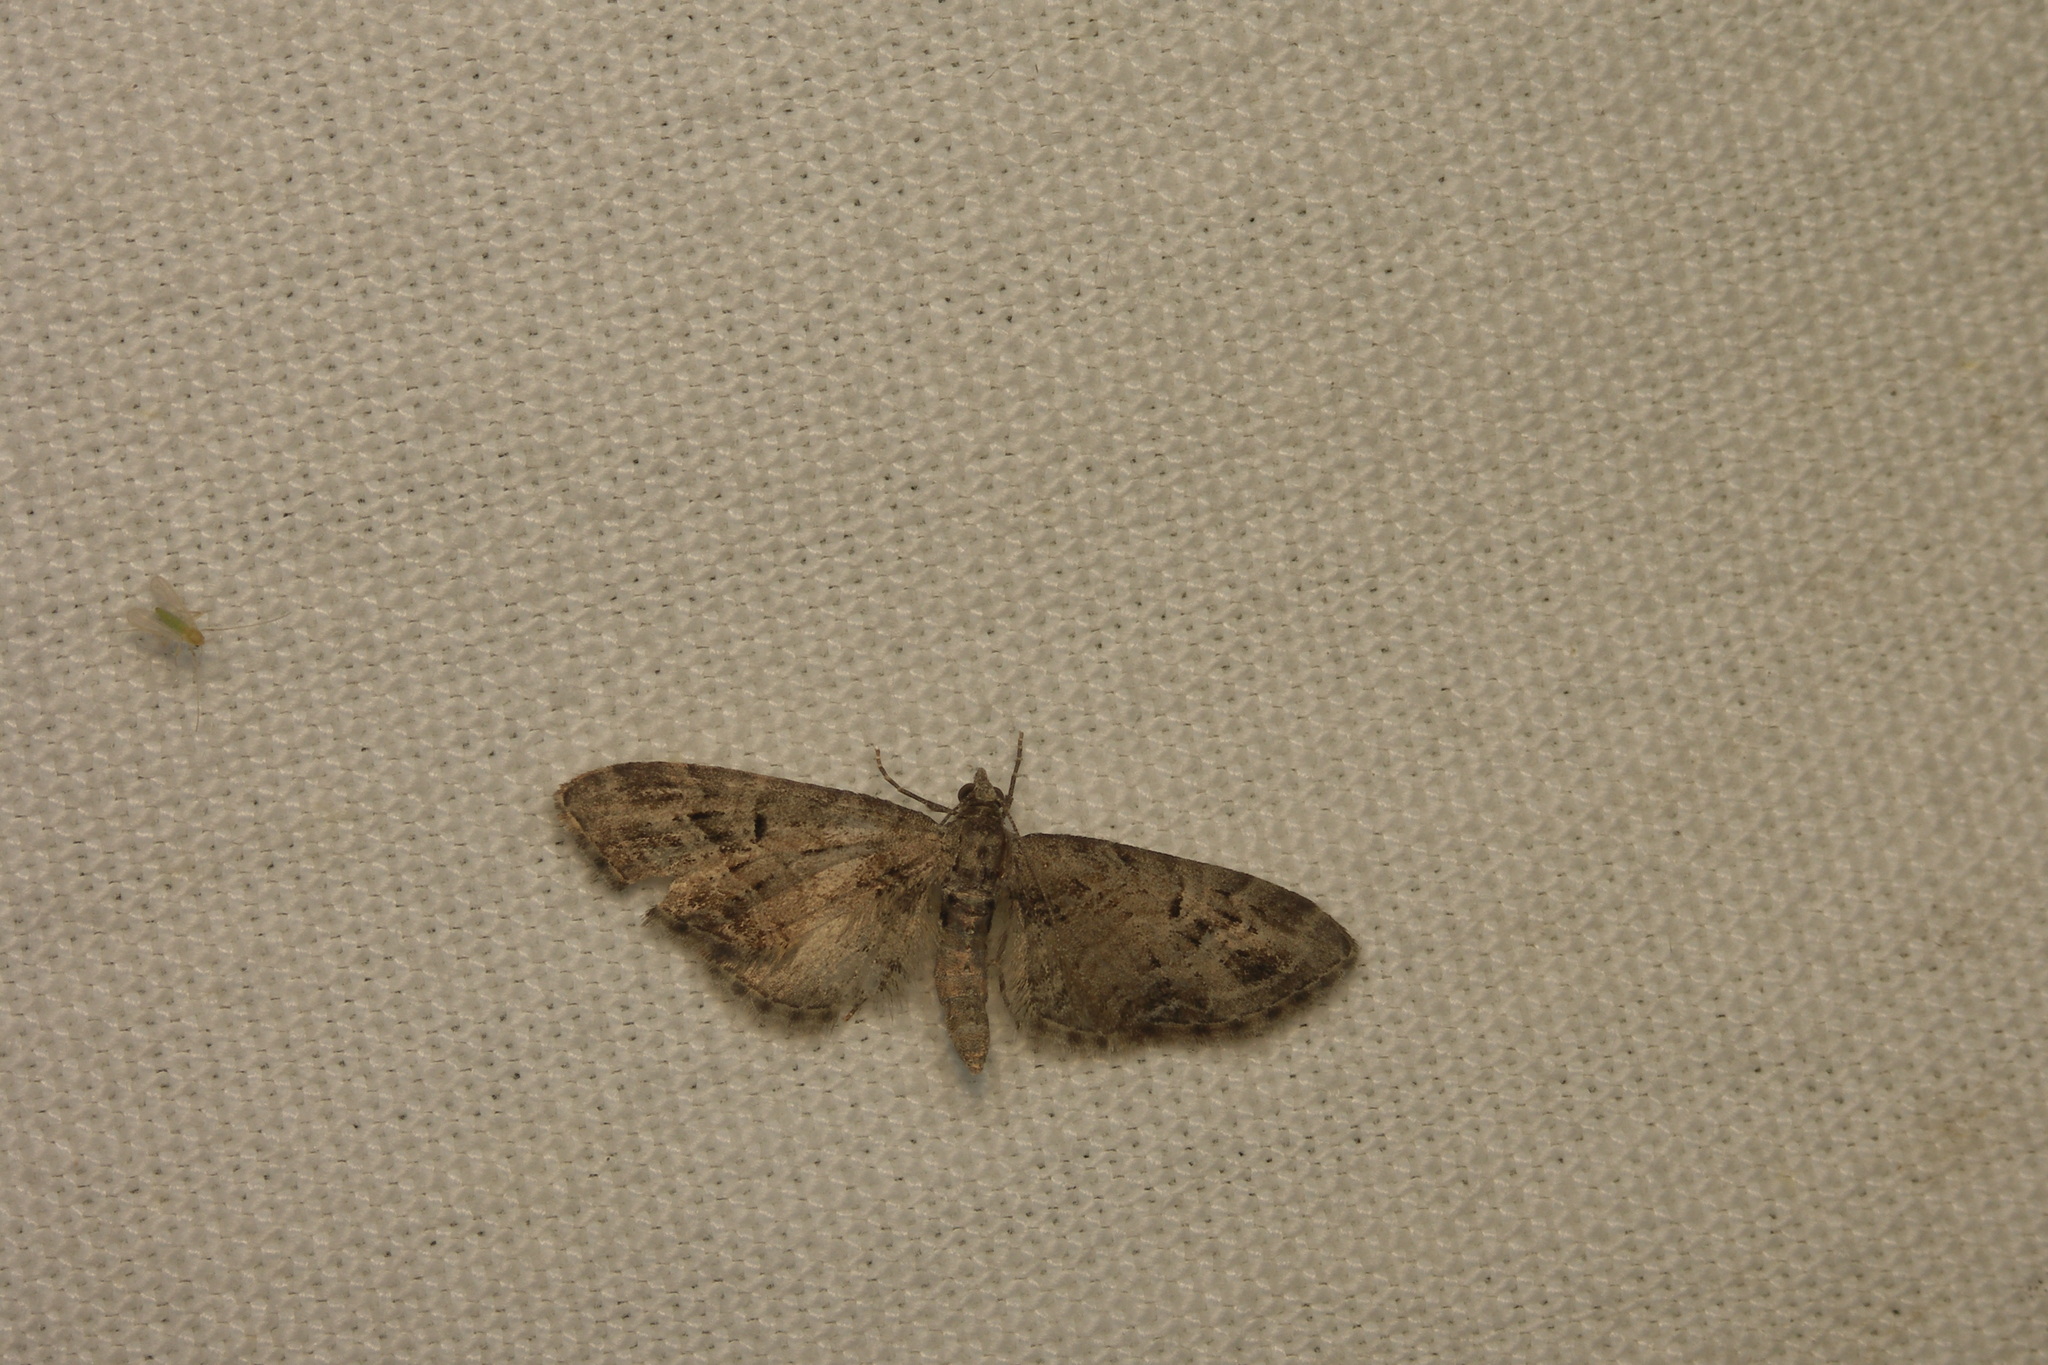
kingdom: Animalia
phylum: Arthropoda
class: Insecta
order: Lepidoptera
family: Geometridae
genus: Eupithecia
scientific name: Eupithecia exiguata
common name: Mottled pug
